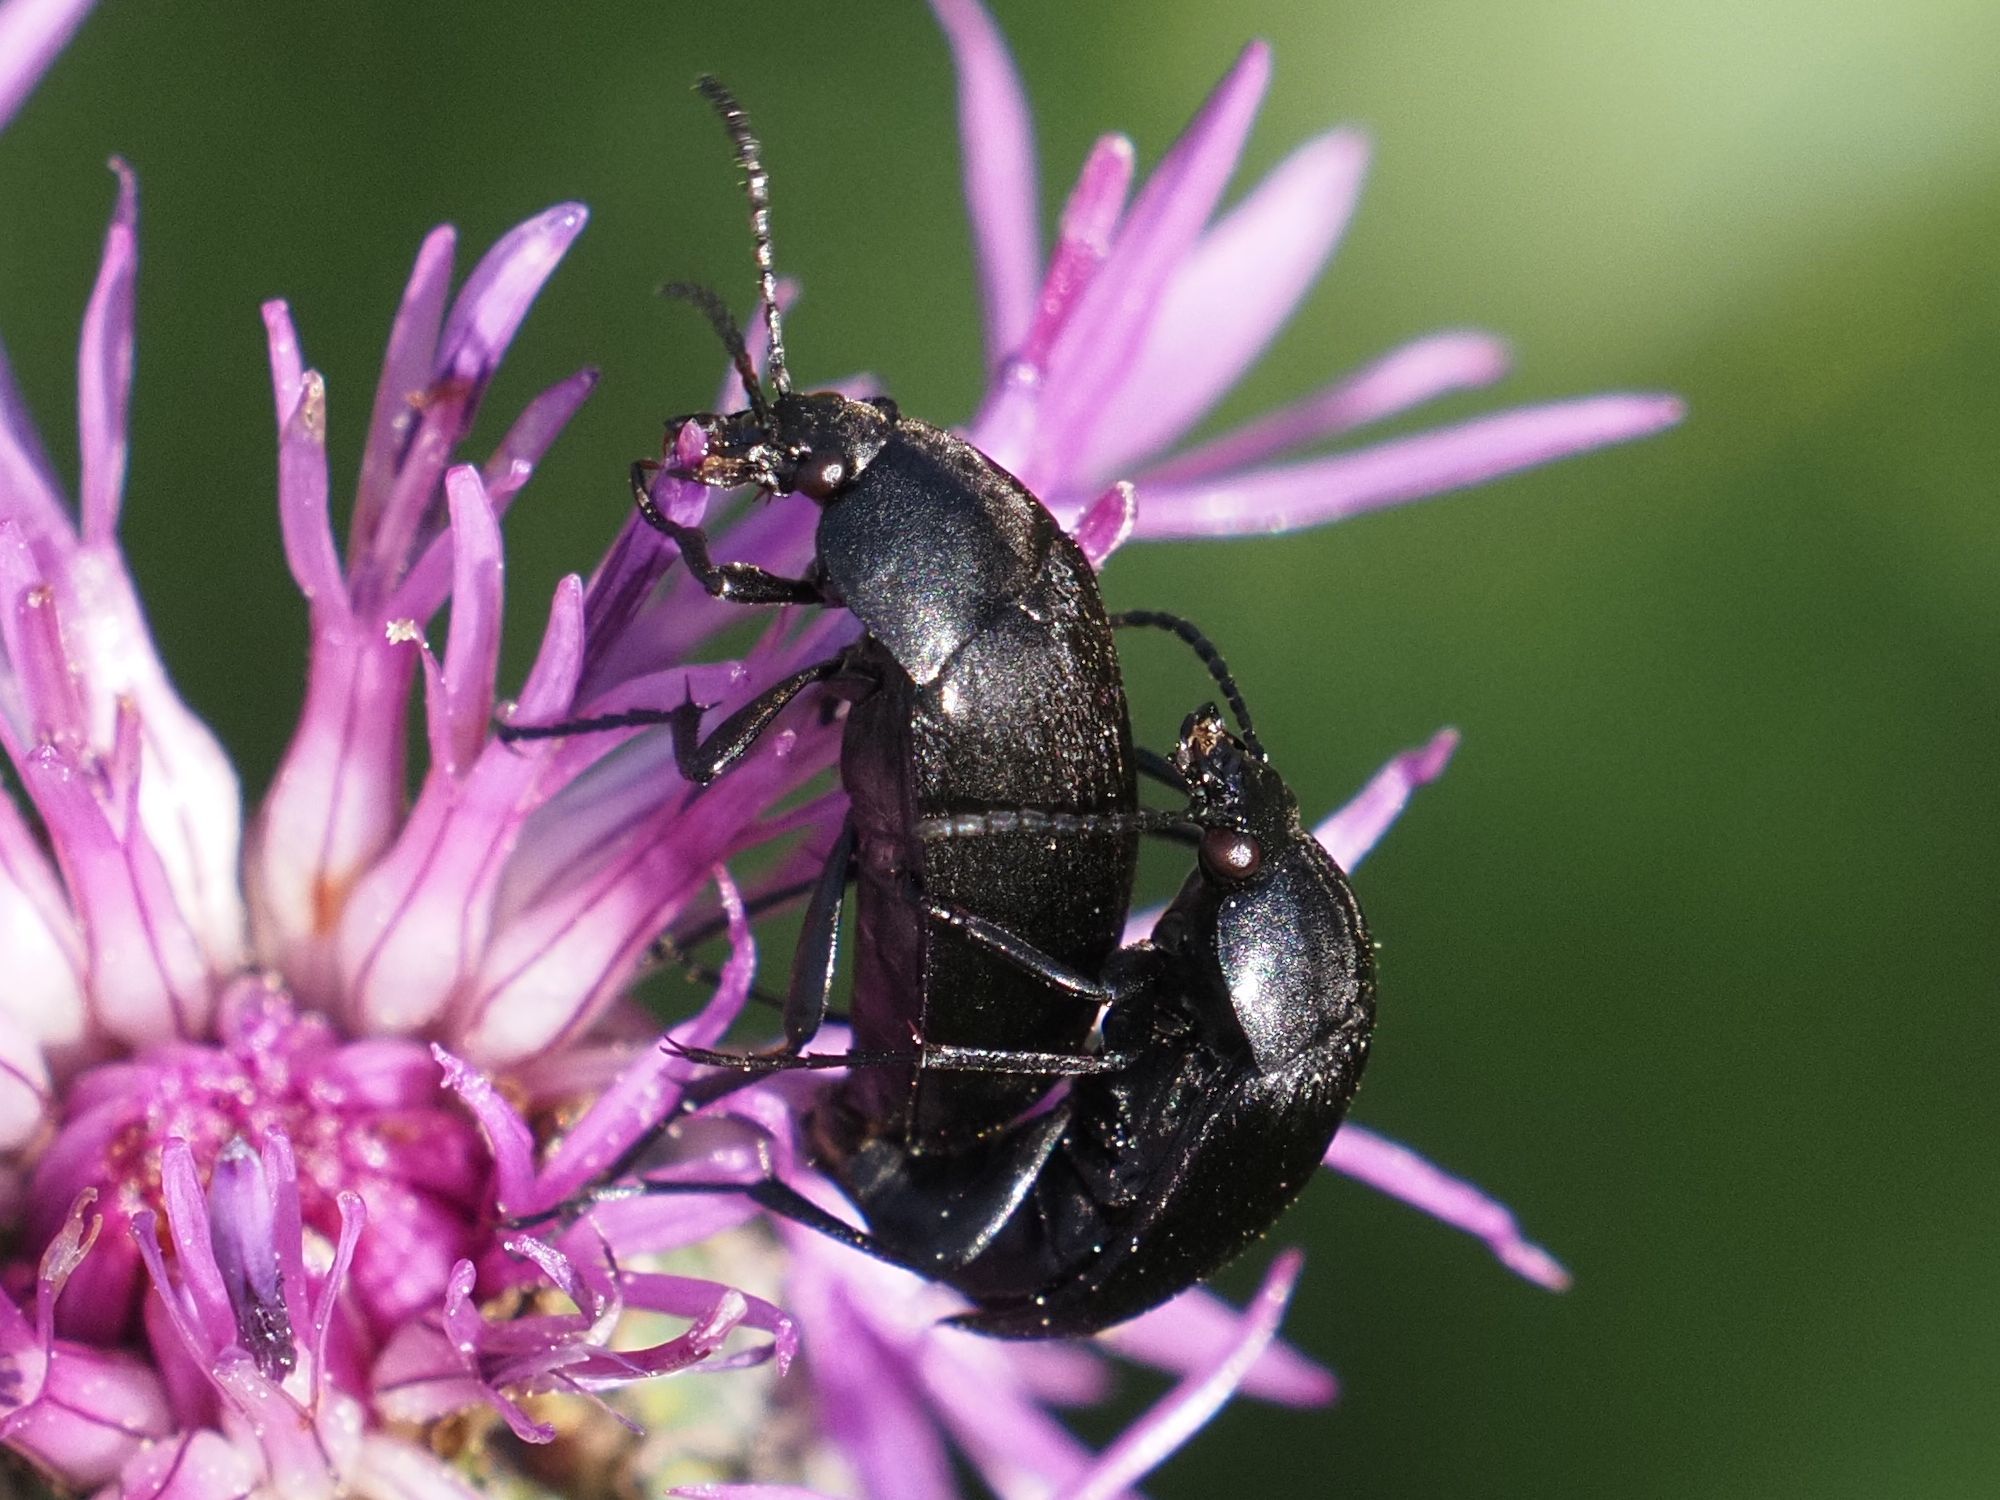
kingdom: Animalia
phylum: Arthropoda
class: Insecta
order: Coleoptera
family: Tenebrionidae
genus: Podonta
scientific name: Podonta nigrita
